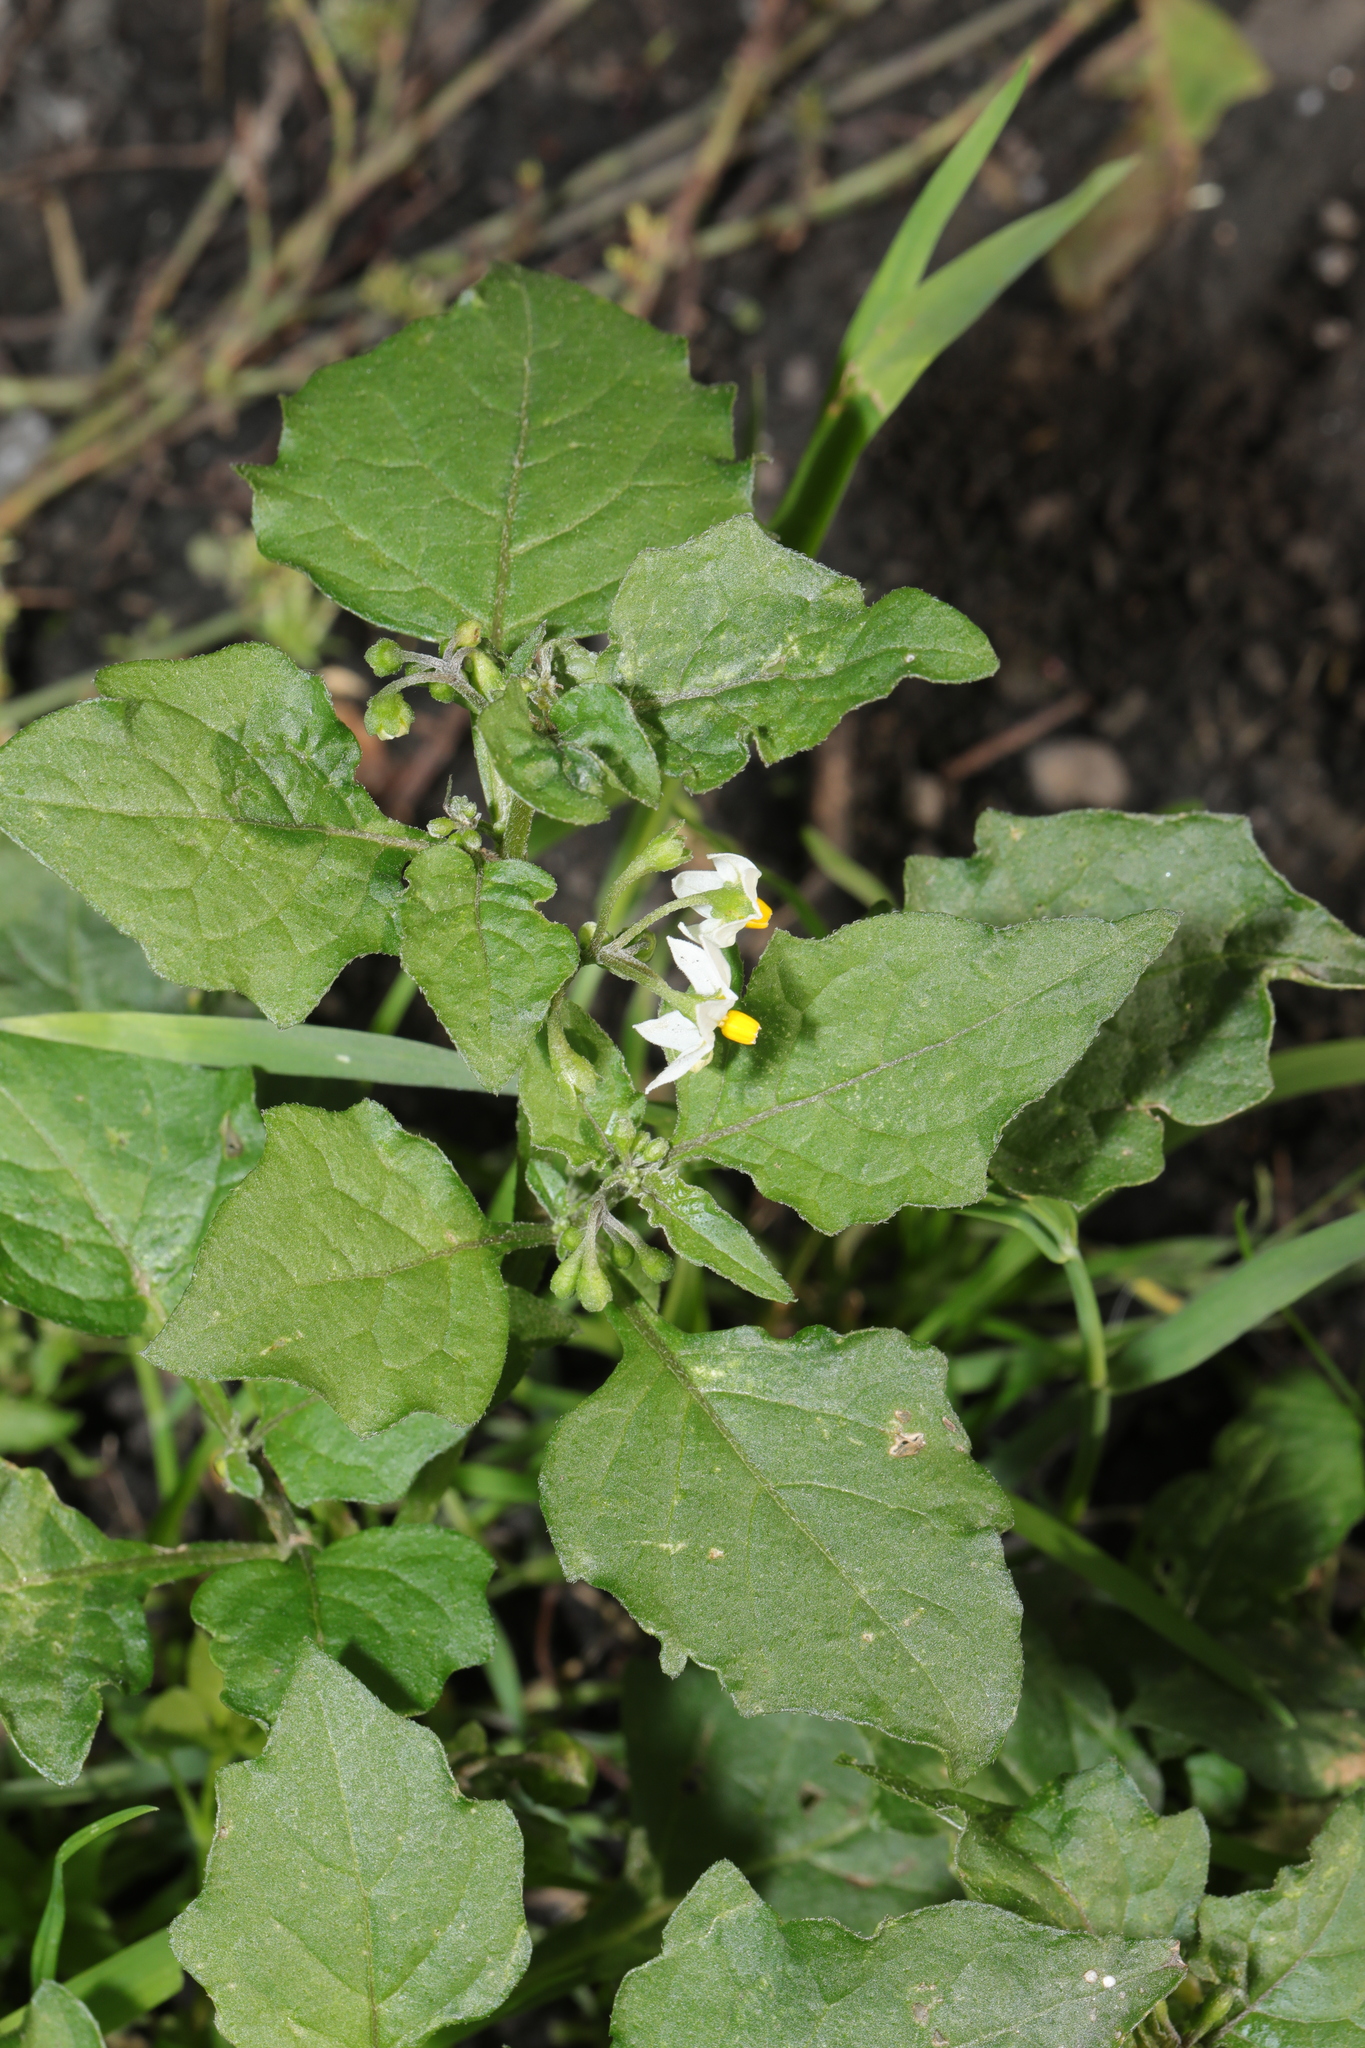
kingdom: Plantae
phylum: Tracheophyta
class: Magnoliopsida
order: Solanales
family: Solanaceae
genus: Solanum
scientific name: Solanum nigrum
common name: Black nightshade
